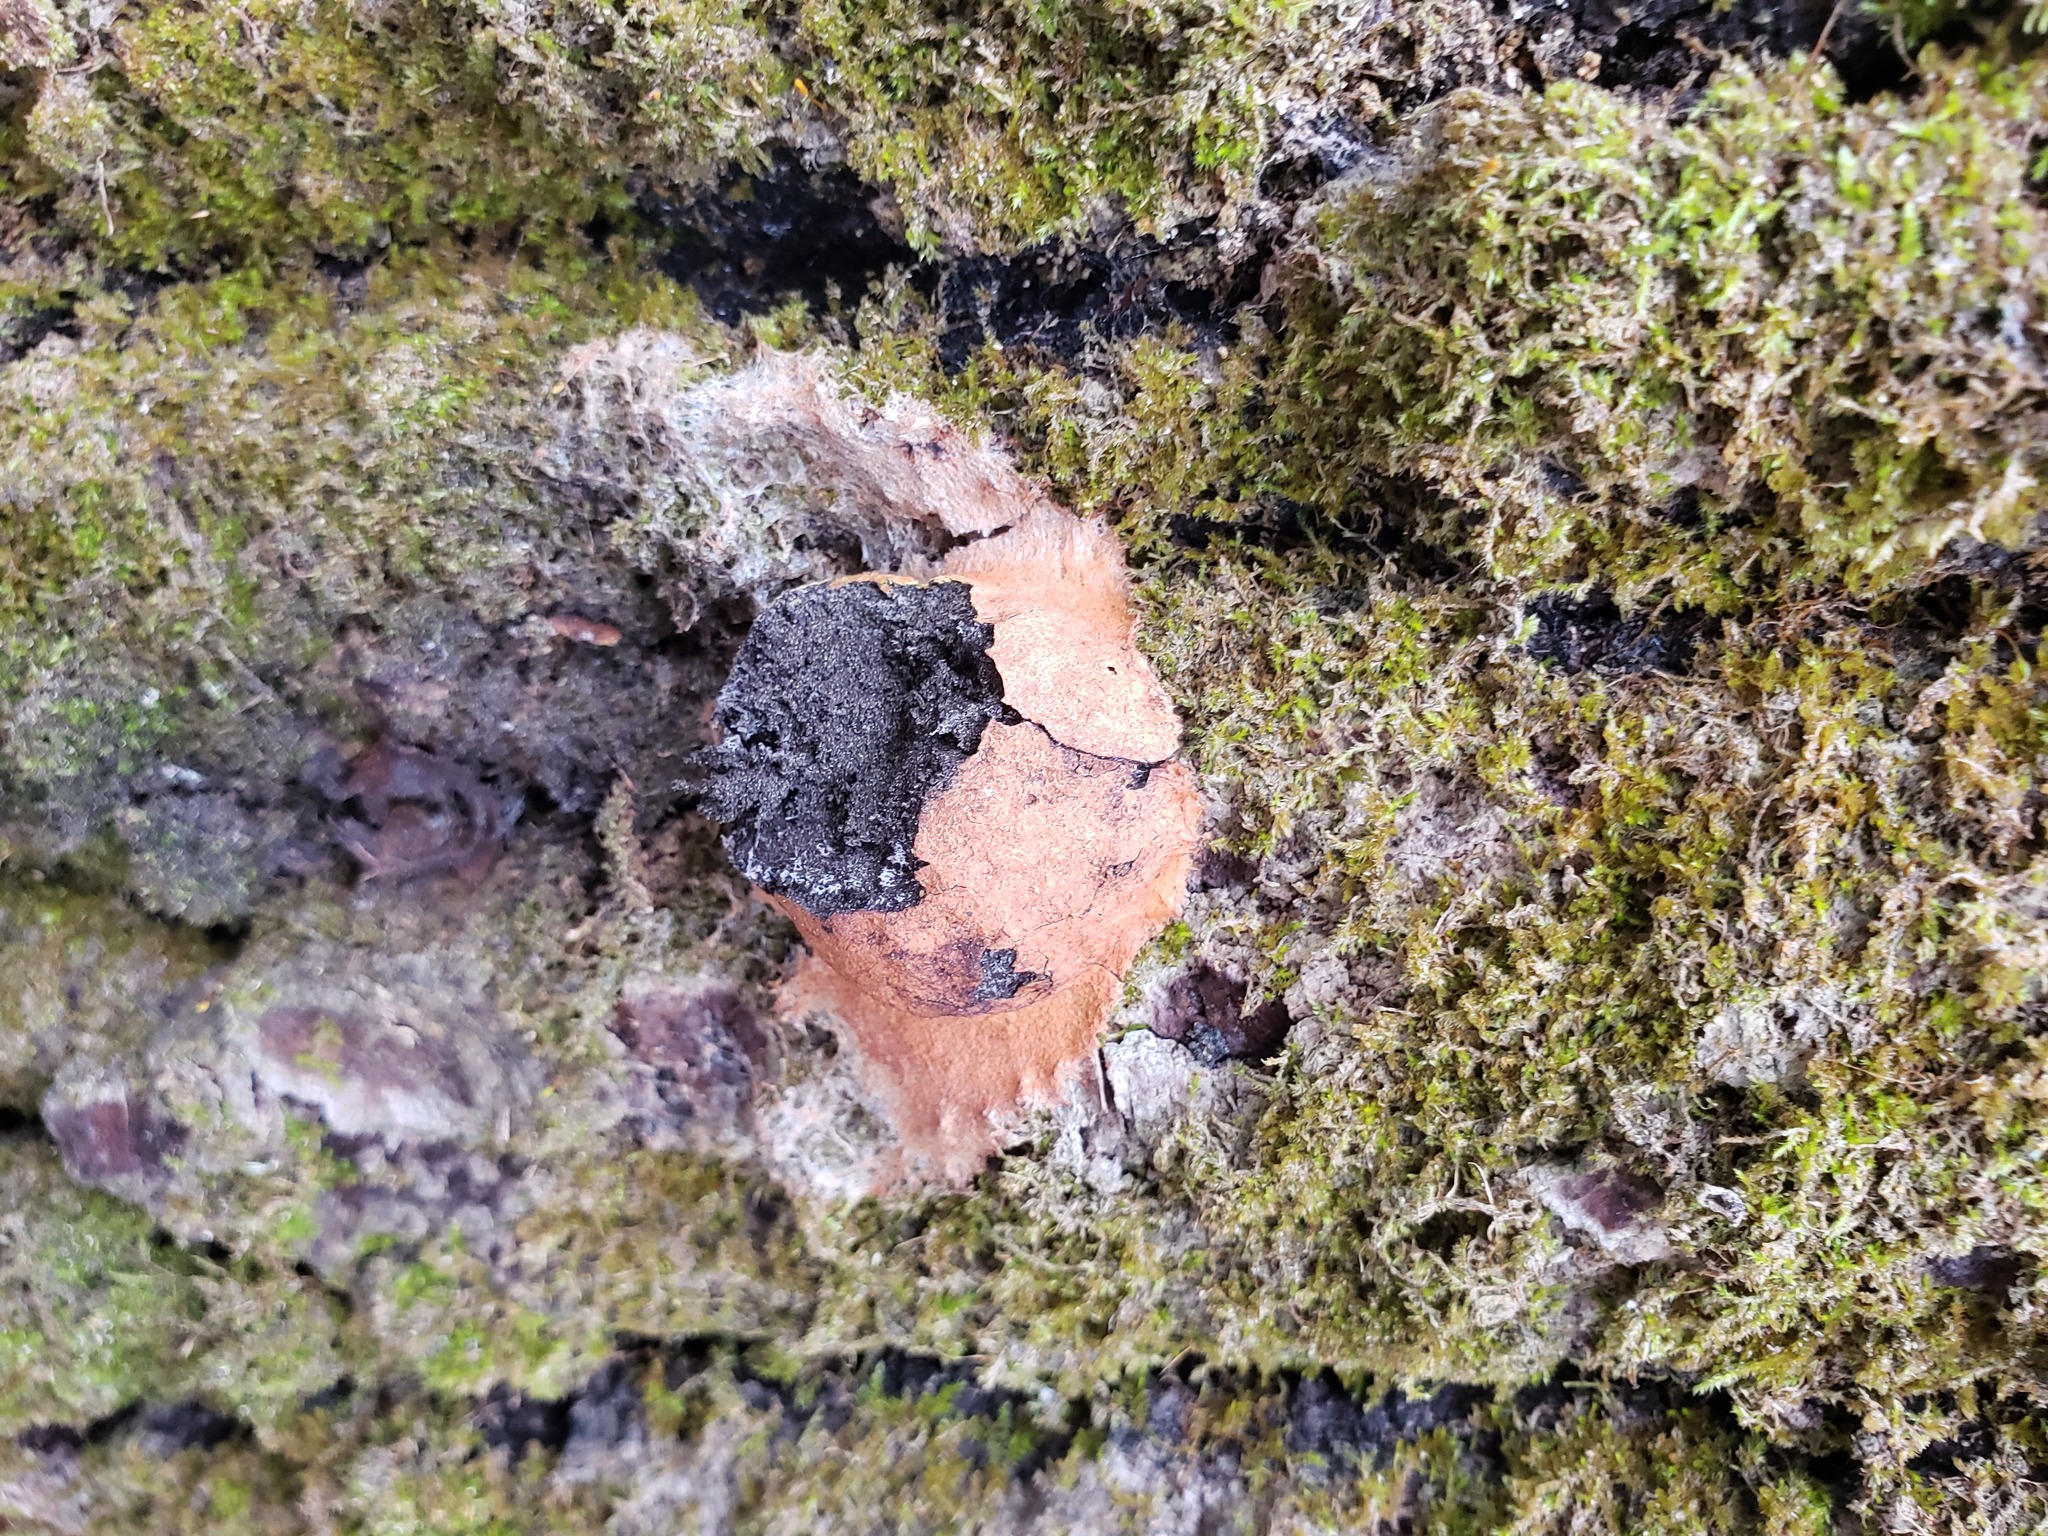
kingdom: Protozoa
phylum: Mycetozoa
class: Myxomycetes
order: Physarales
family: Physaraceae
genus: Fuligo
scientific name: Fuligo leviderma
